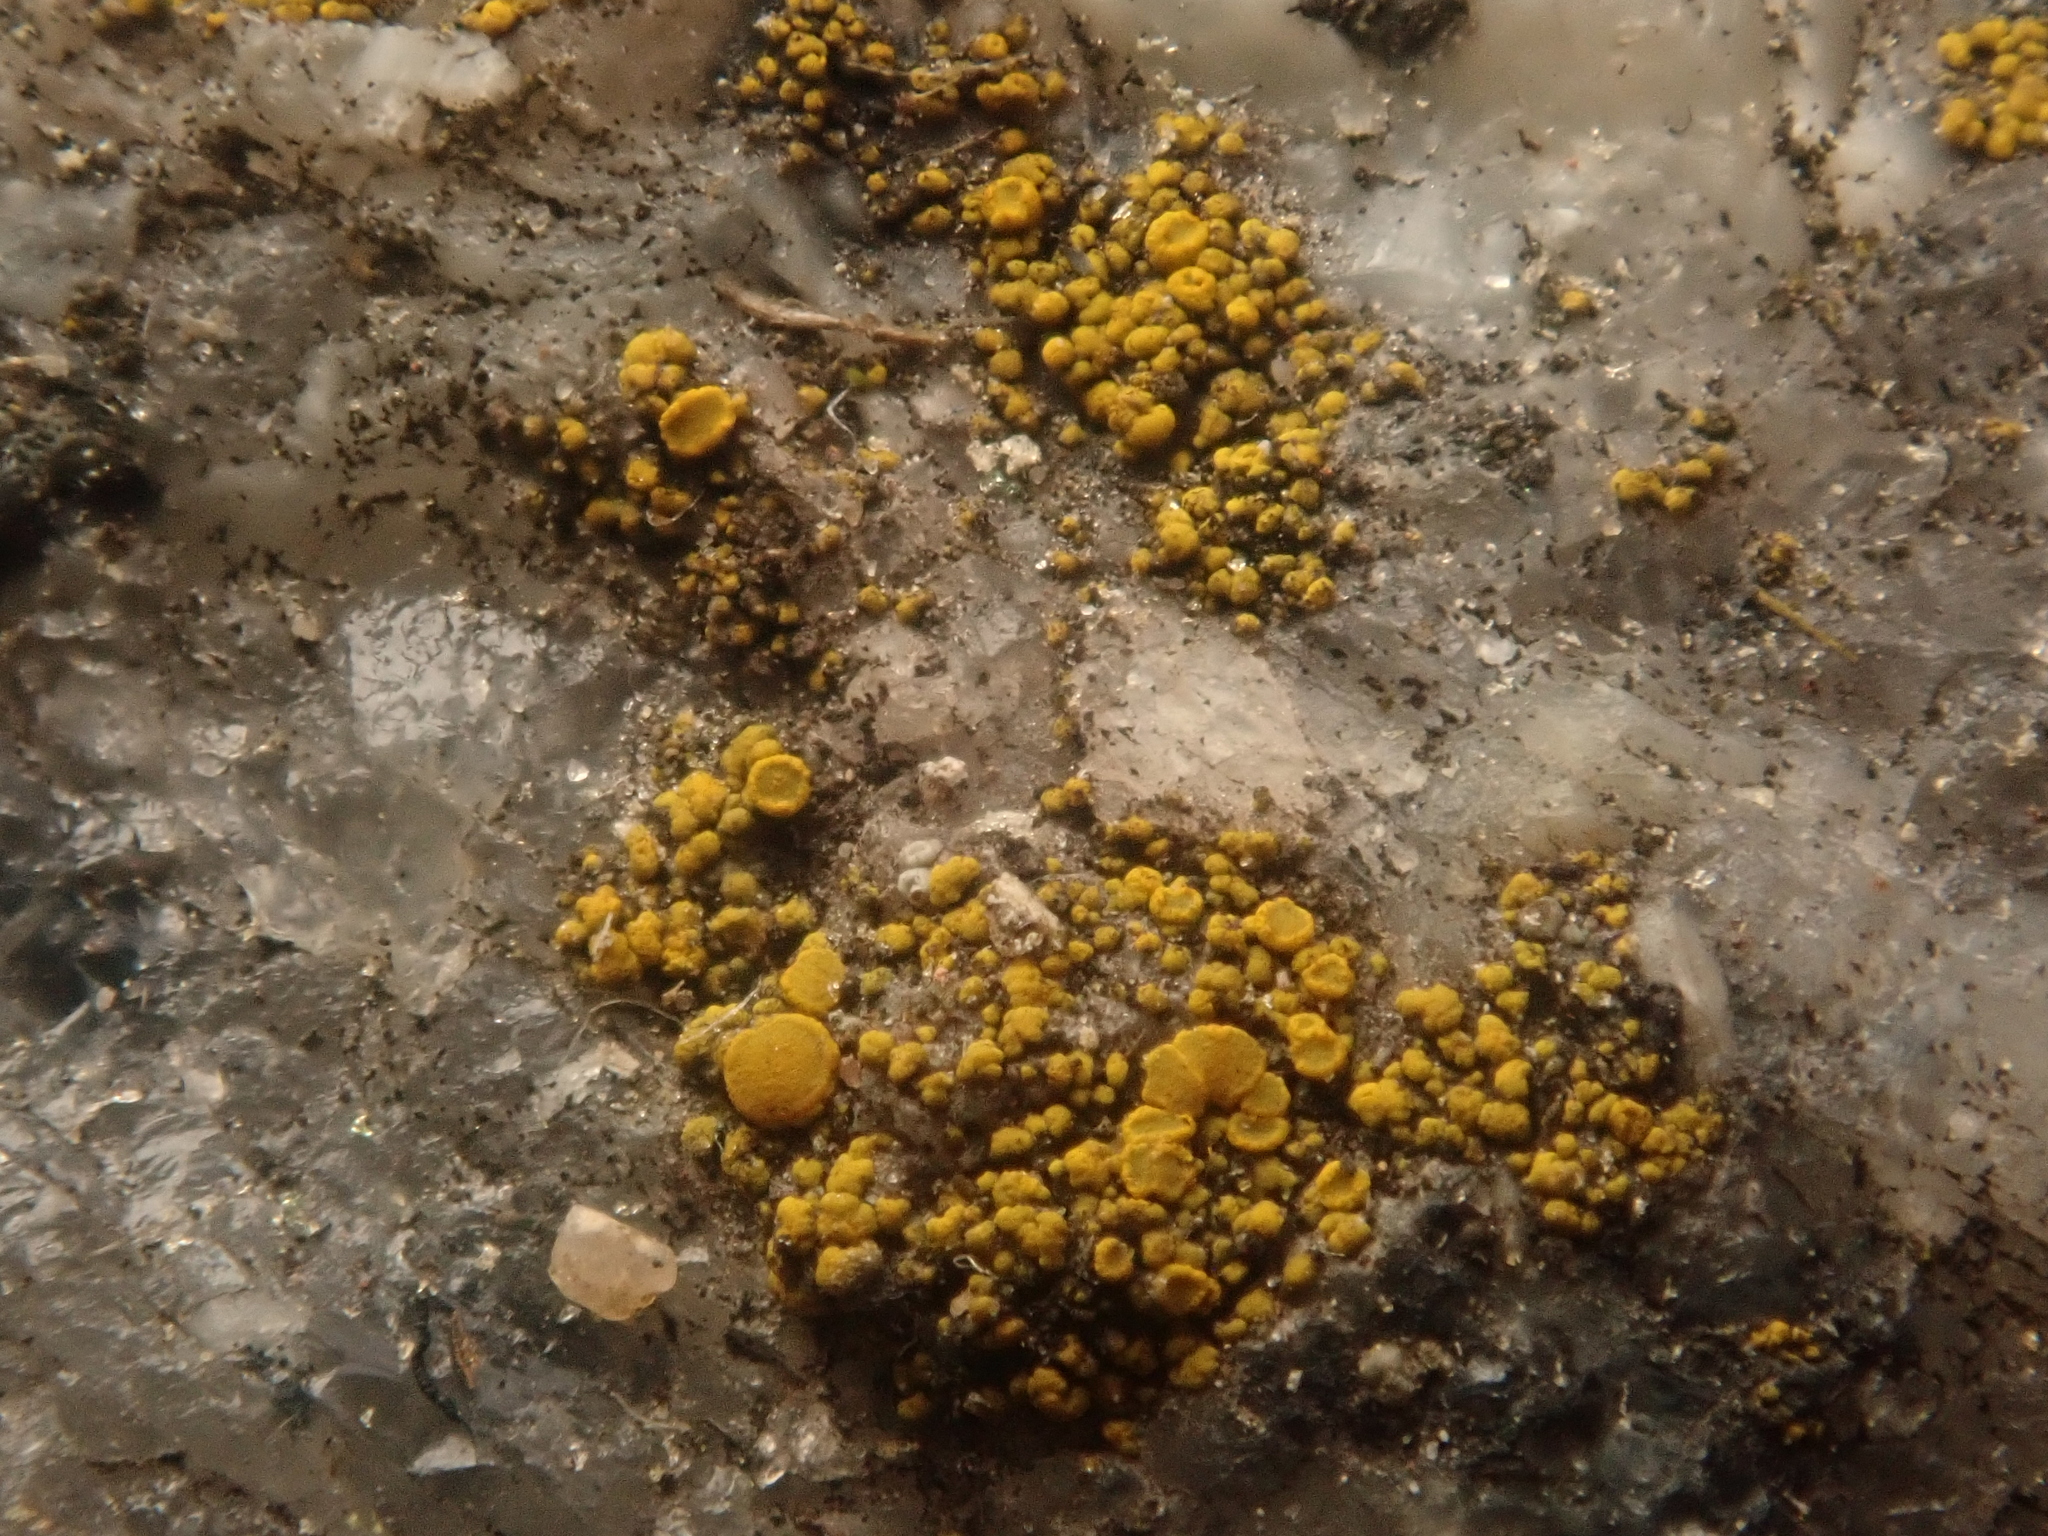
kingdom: Fungi
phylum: Ascomycota
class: Candelariomycetes
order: Candelariales
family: Candelariaceae
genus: Candelariella
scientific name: Candelariella vitellina
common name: Common goldspeck
